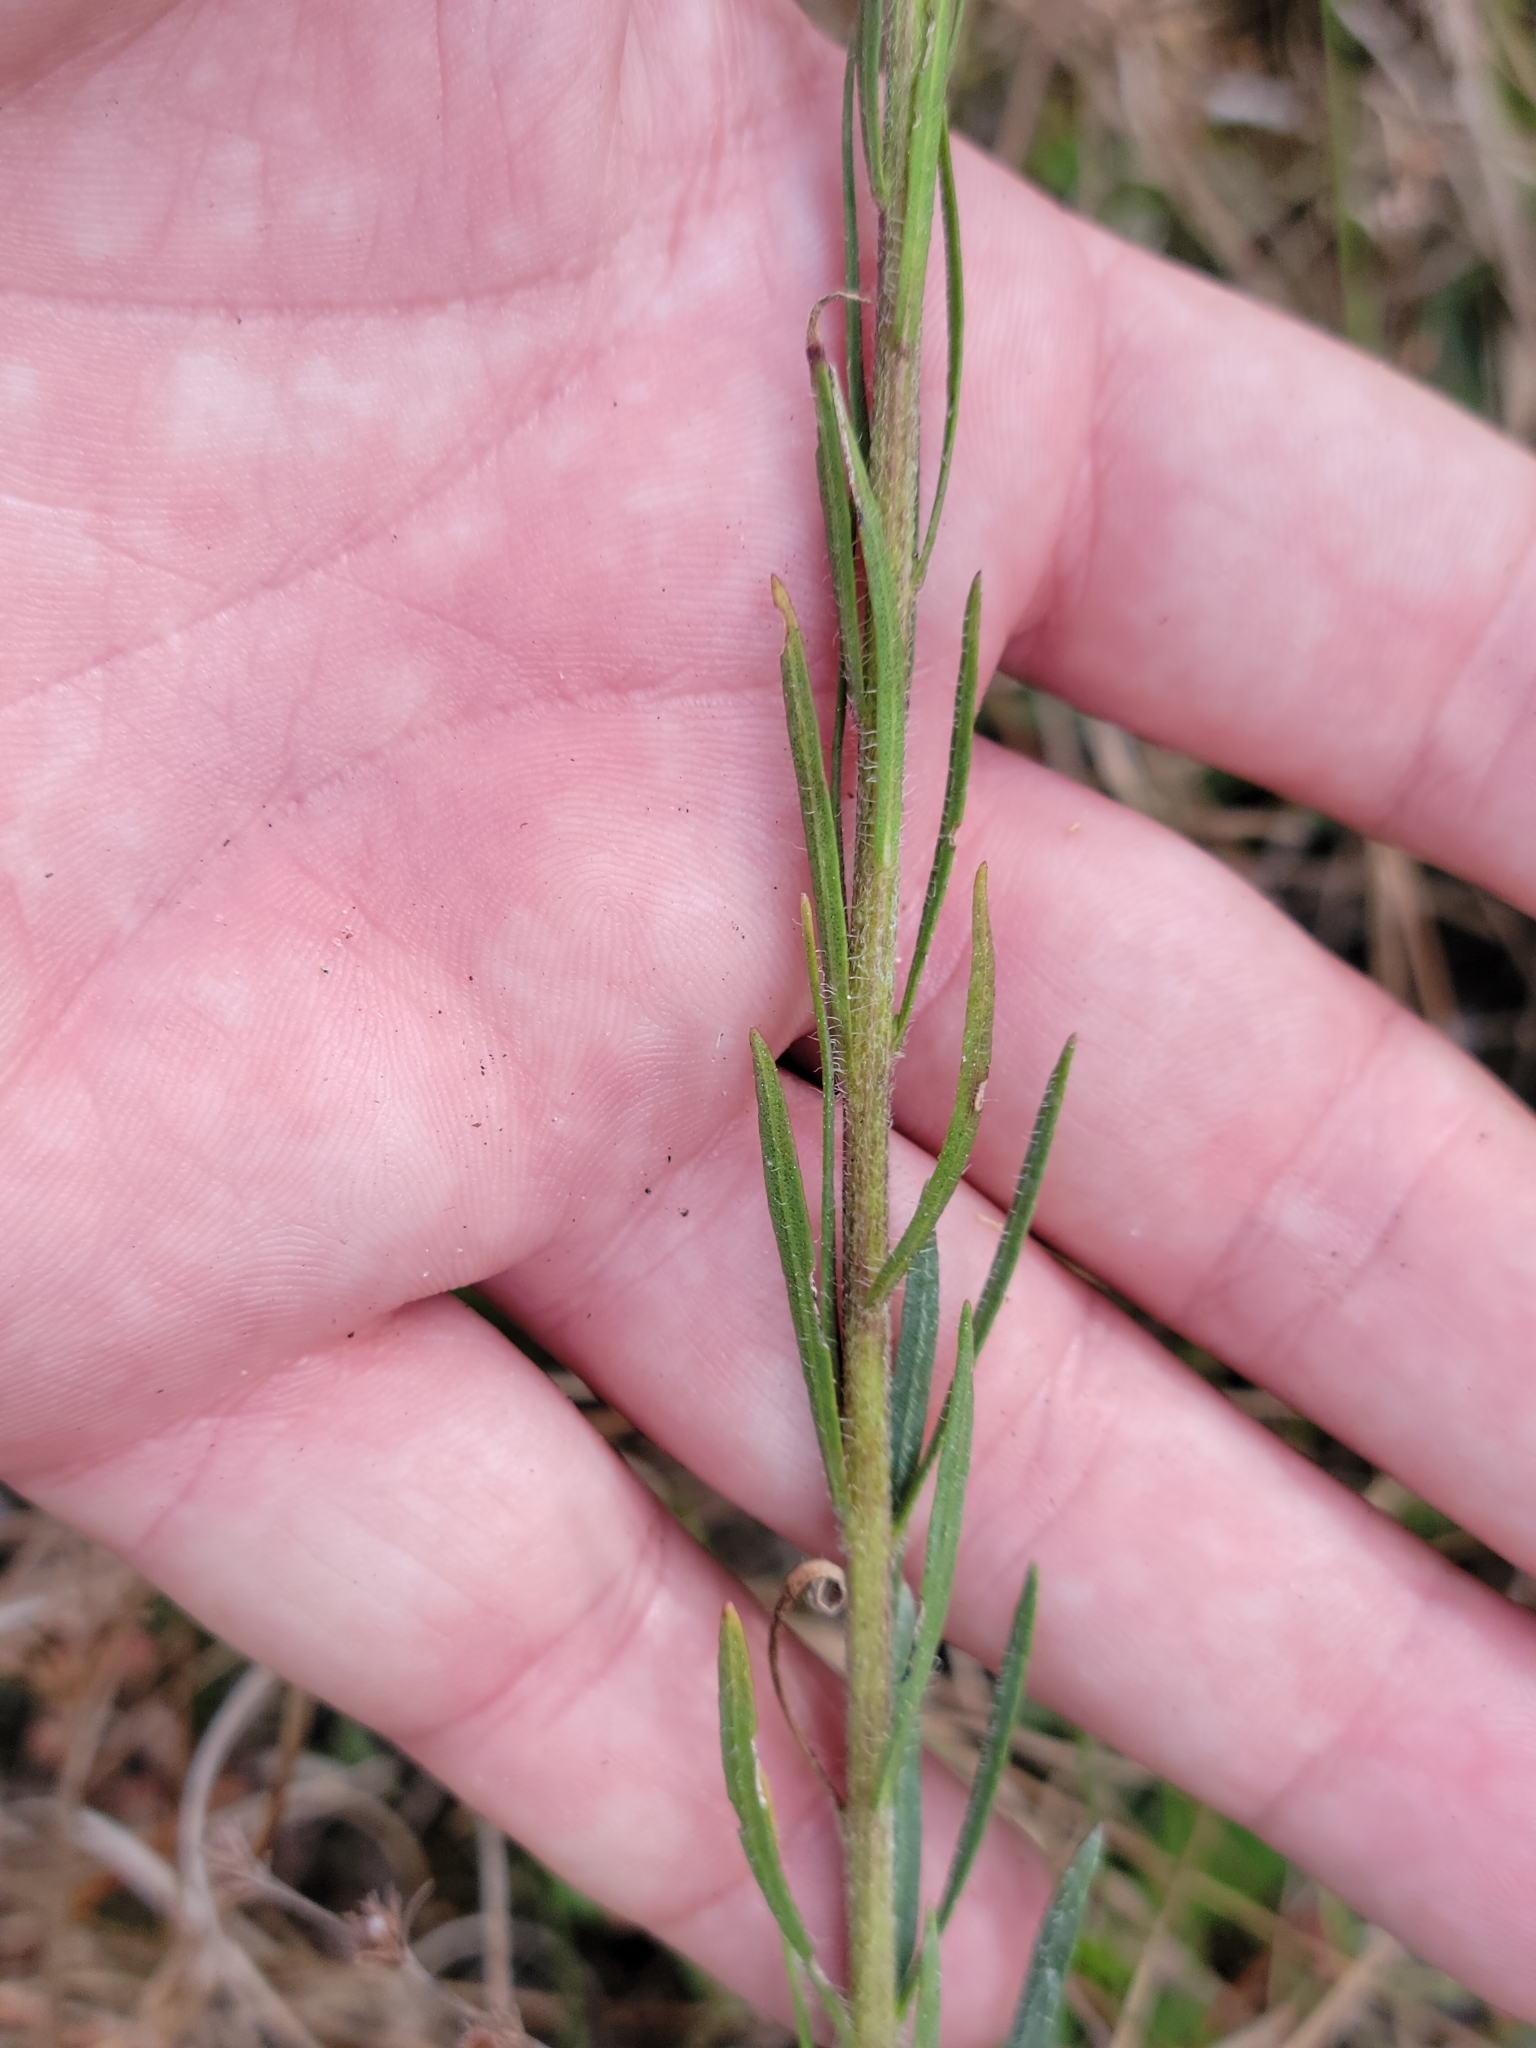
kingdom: Plantae
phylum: Tracheophyta
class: Magnoliopsida
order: Asterales
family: Asteraceae
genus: Liatris
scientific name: Liatris gracilis
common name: Slender gayfeather
